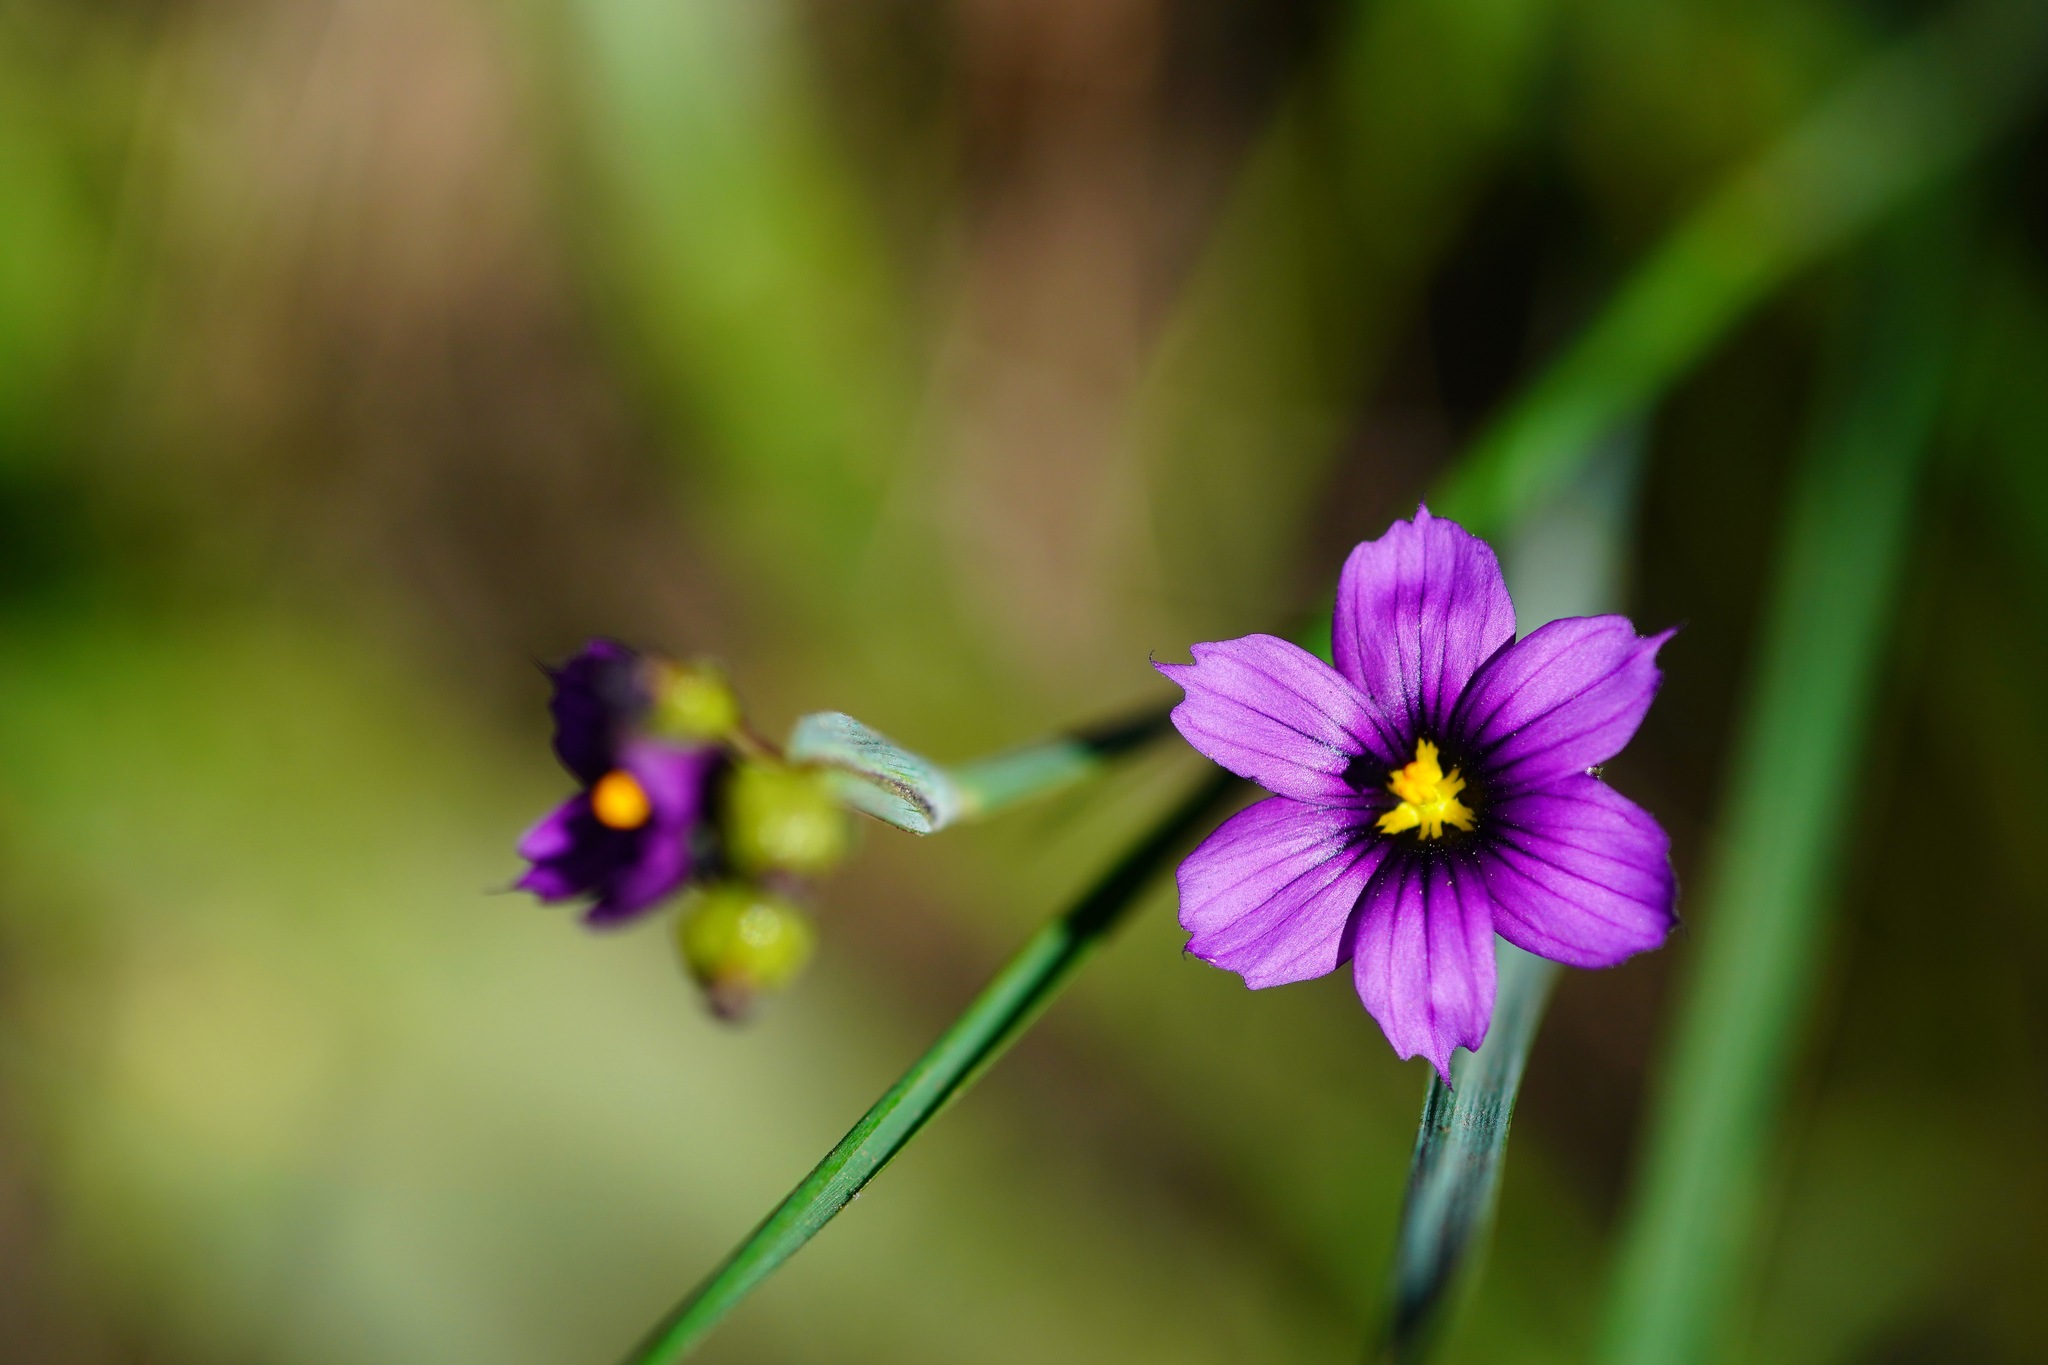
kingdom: Plantae
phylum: Tracheophyta
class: Liliopsida
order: Asparagales
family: Iridaceae
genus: Sisyrinchium
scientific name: Sisyrinchium bellum
